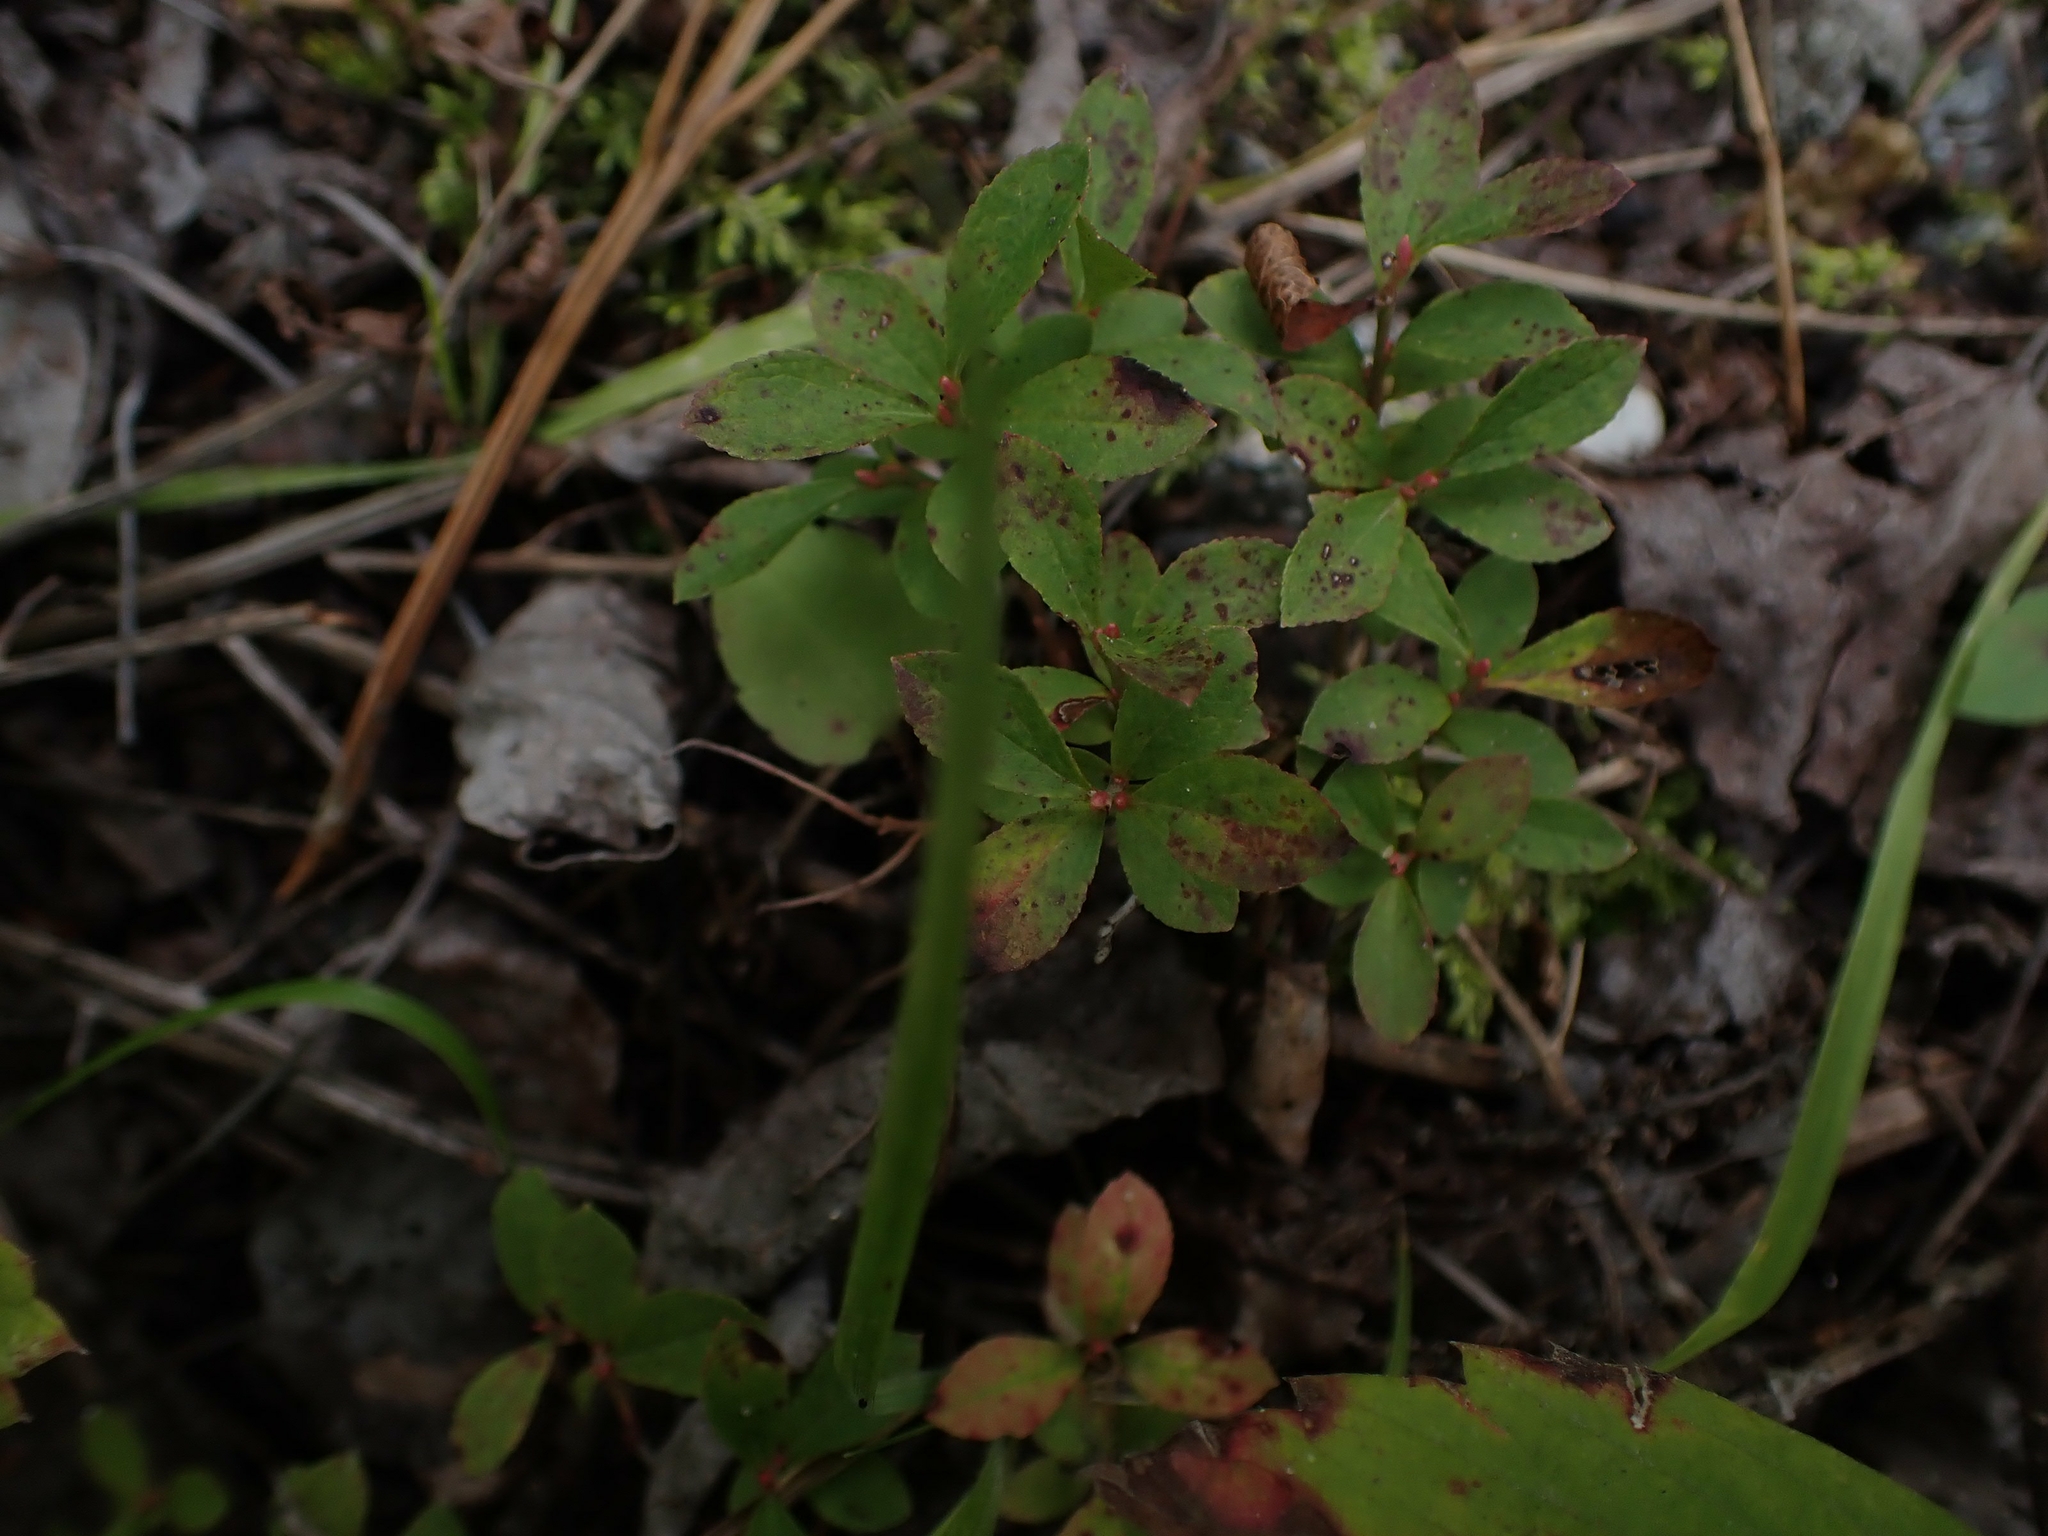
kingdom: Plantae
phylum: Tracheophyta
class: Magnoliopsida
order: Ericales
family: Ericaceae
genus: Vaccinium
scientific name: Vaccinium angustifolium
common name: Early lowbush blueberry
